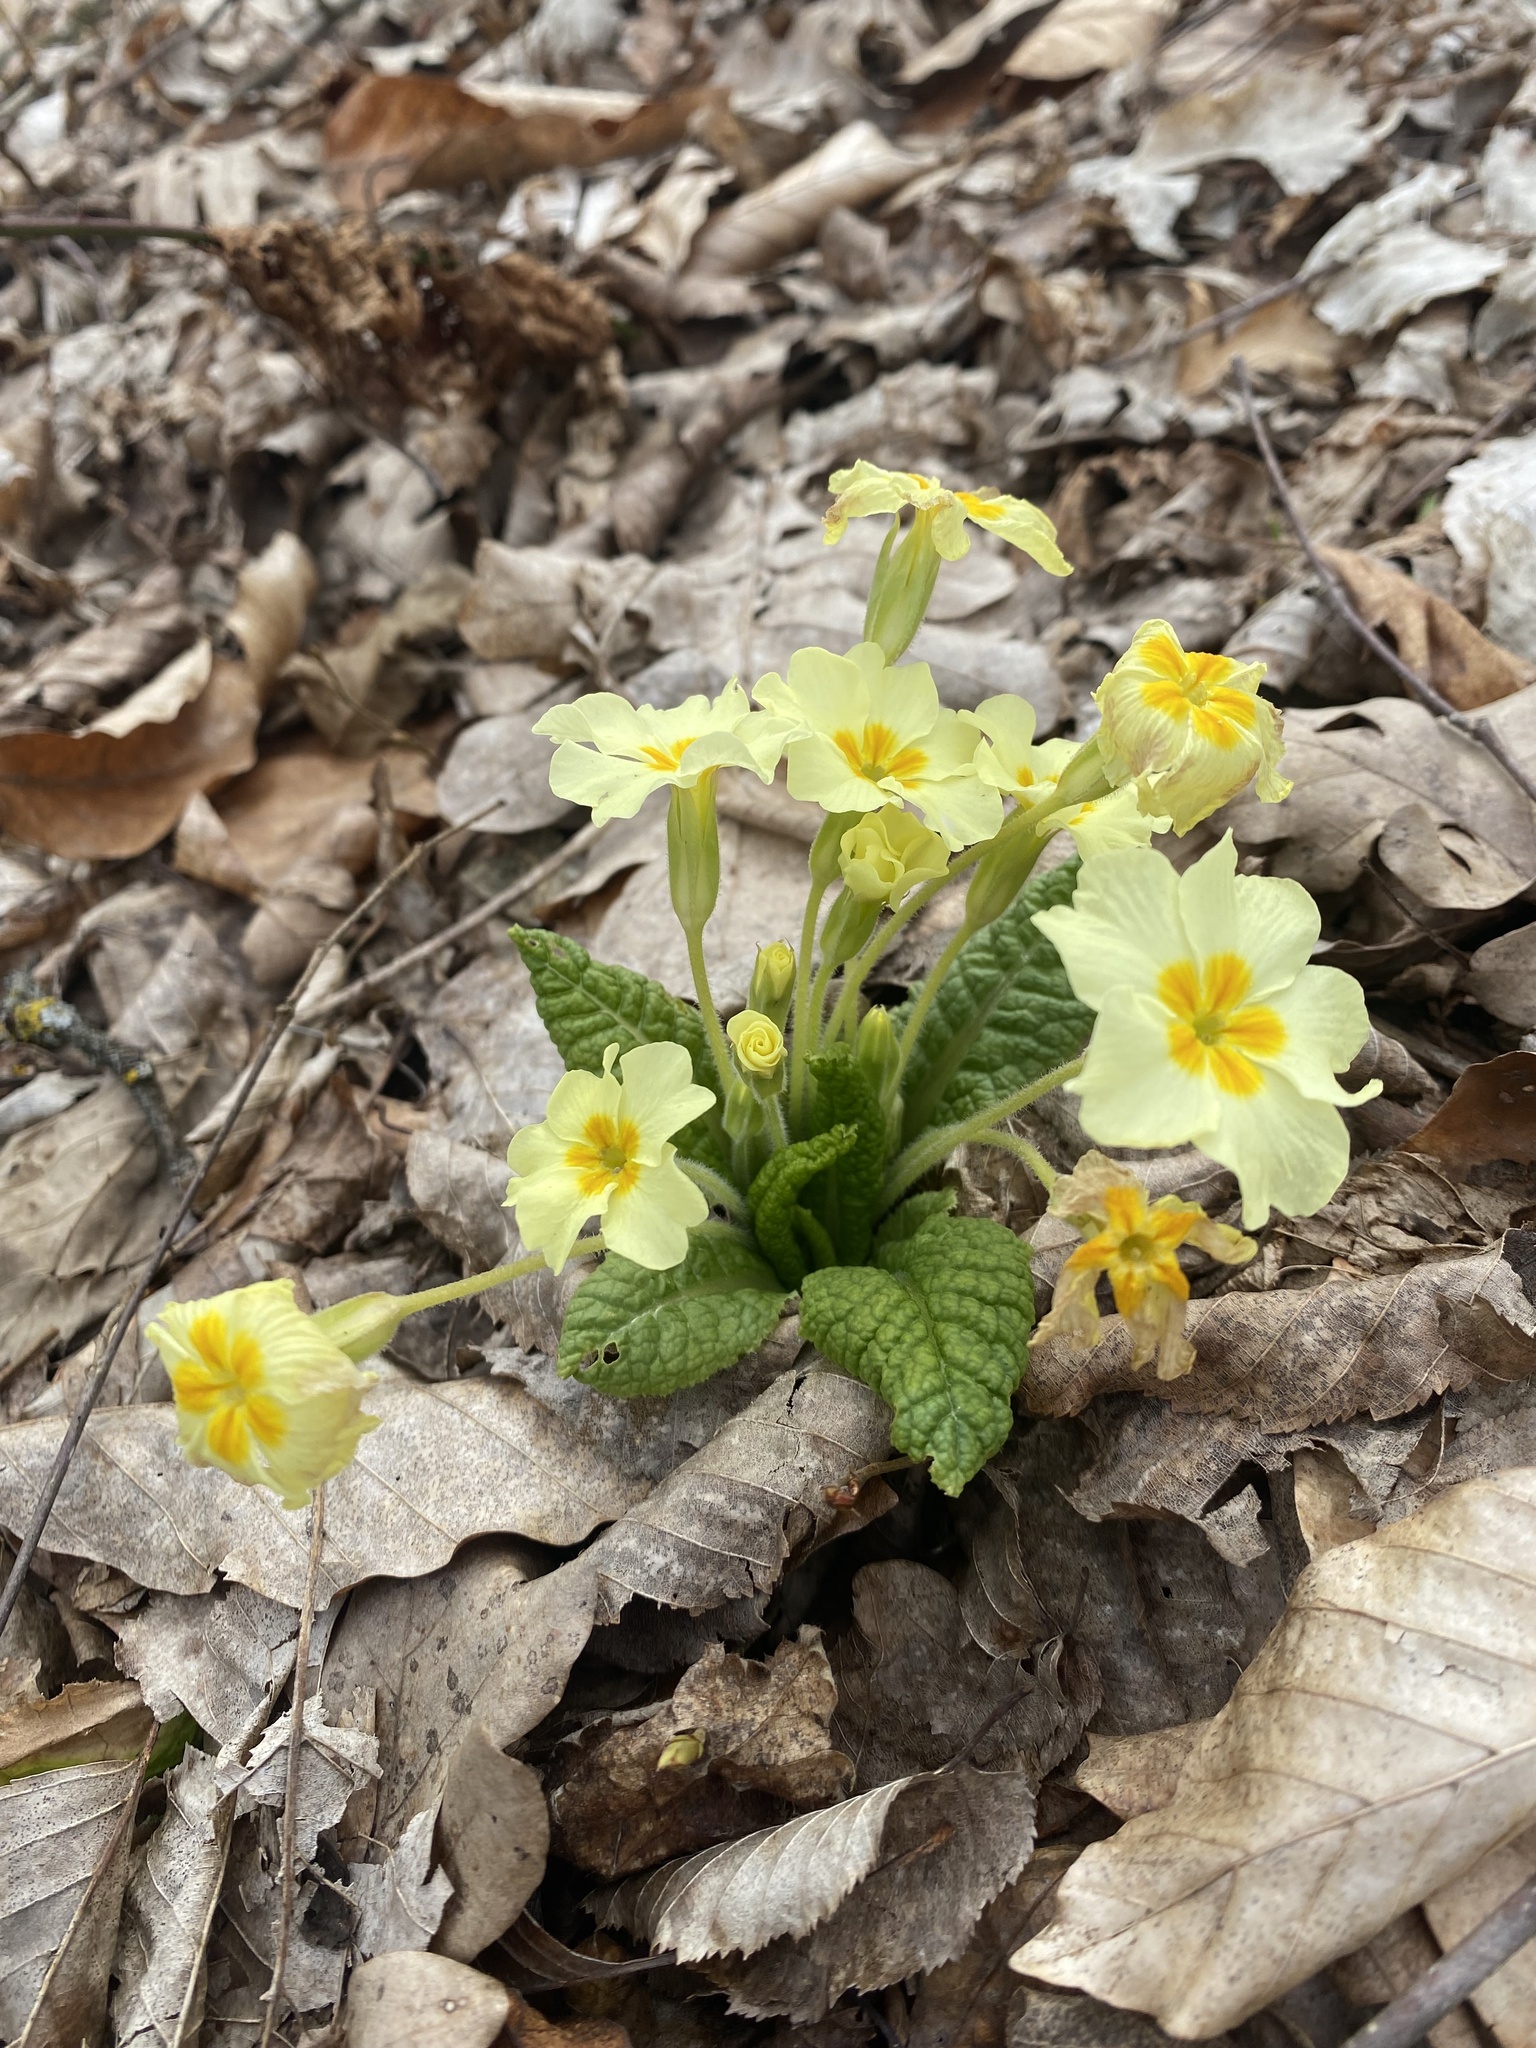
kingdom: Plantae
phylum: Tracheophyta
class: Magnoliopsida
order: Ericales
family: Primulaceae
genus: Primula
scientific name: Primula vulgaris
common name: Primrose
